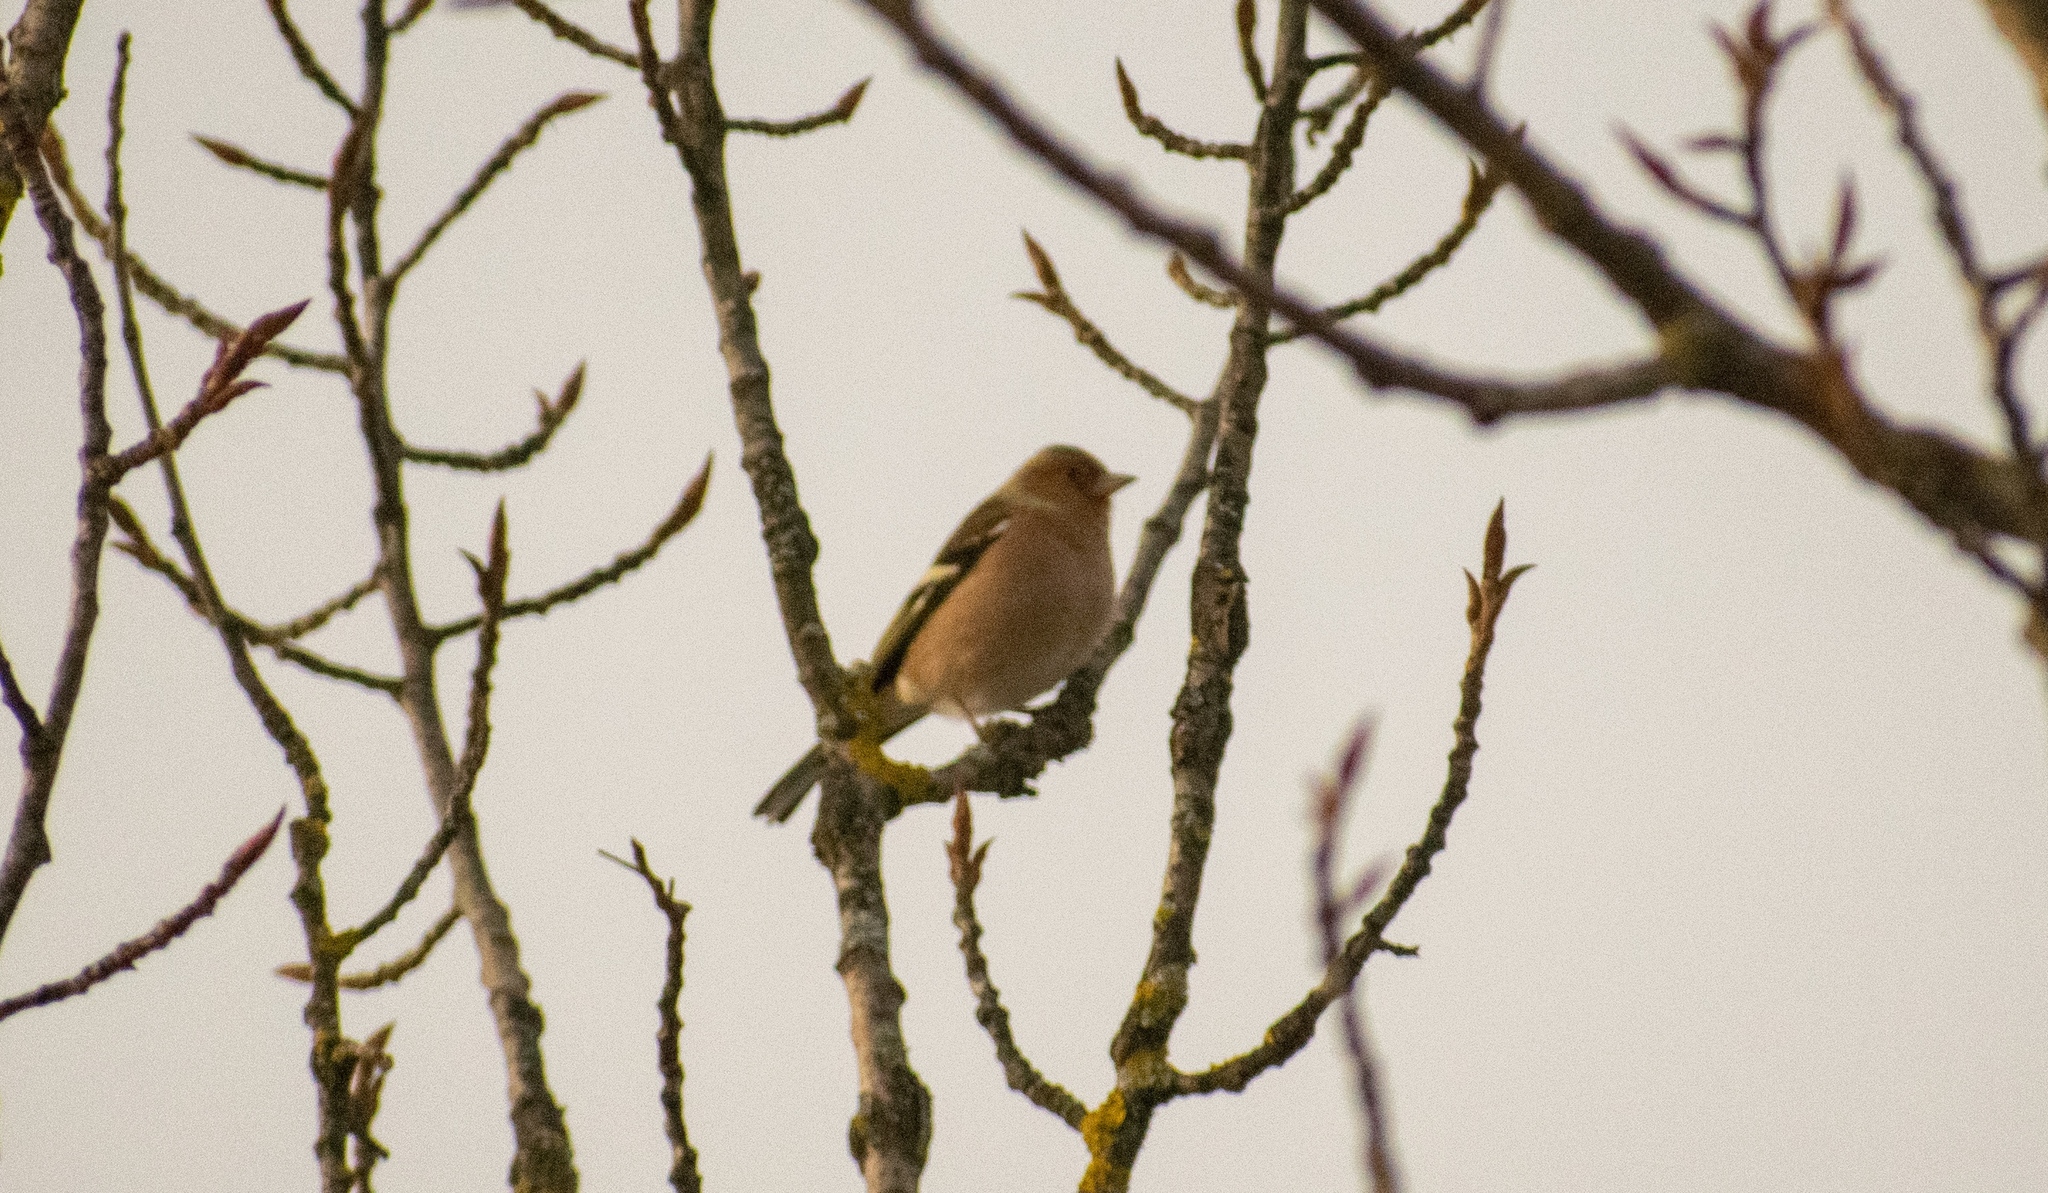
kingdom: Animalia
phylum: Chordata
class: Aves
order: Passeriformes
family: Fringillidae
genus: Fringilla
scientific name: Fringilla coelebs
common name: Common chaffinch
